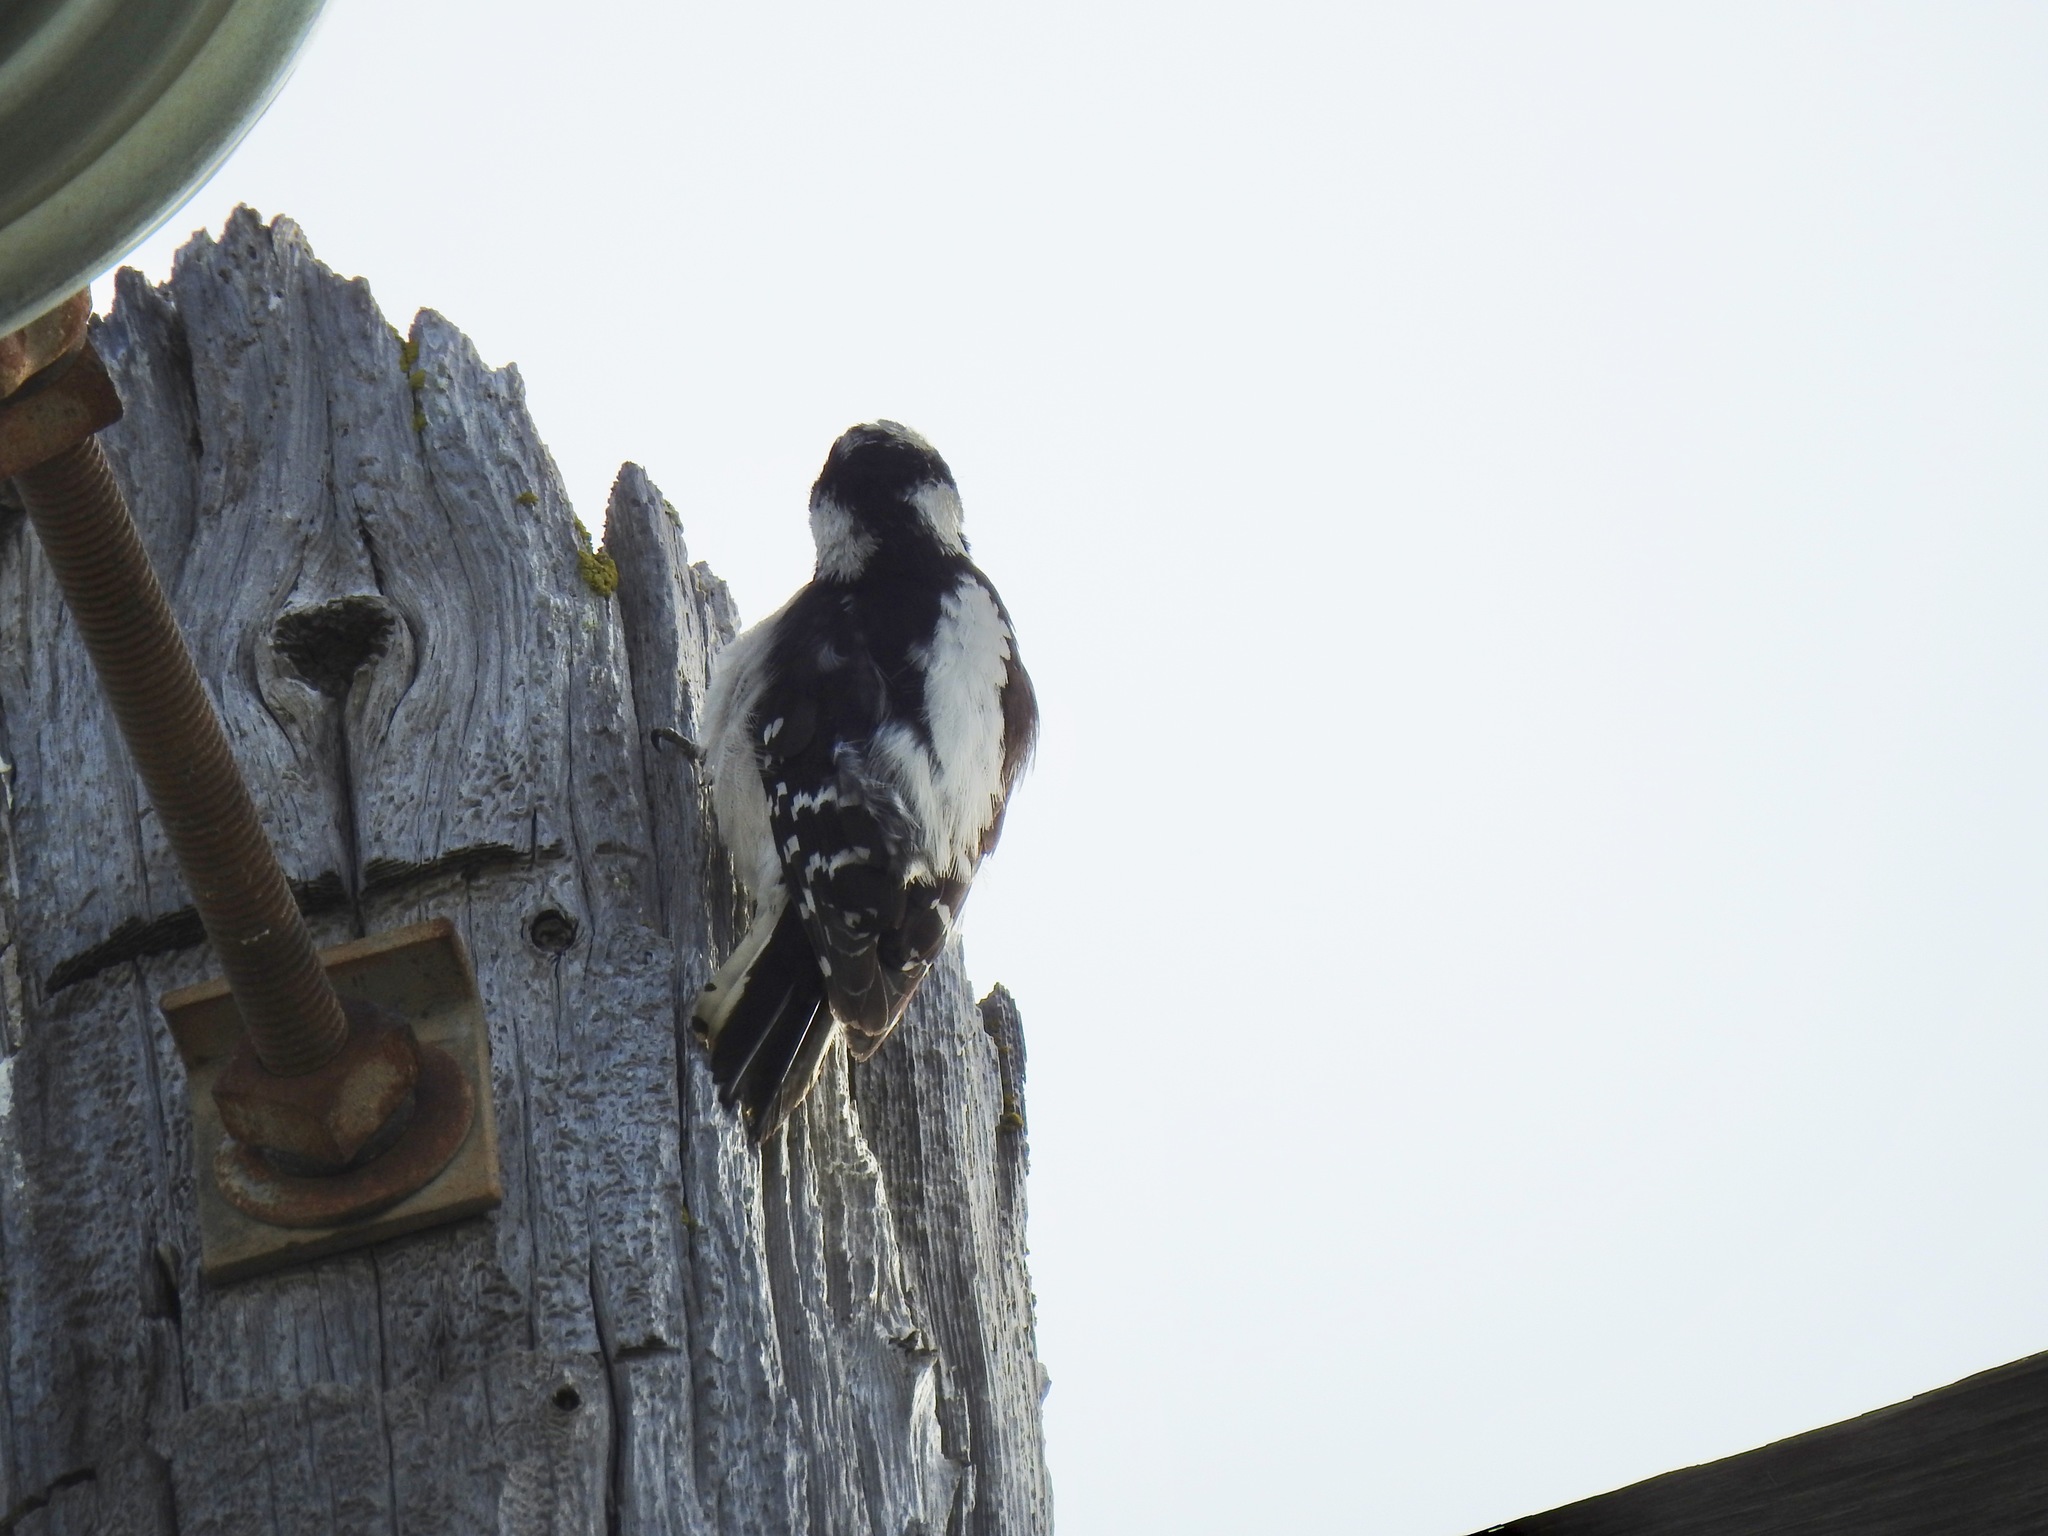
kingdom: Animalia
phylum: Chordata
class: Aves
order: Piciformes
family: Picidae
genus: Dryobates
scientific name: Dryobates pubescens
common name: Downy woodpecker
